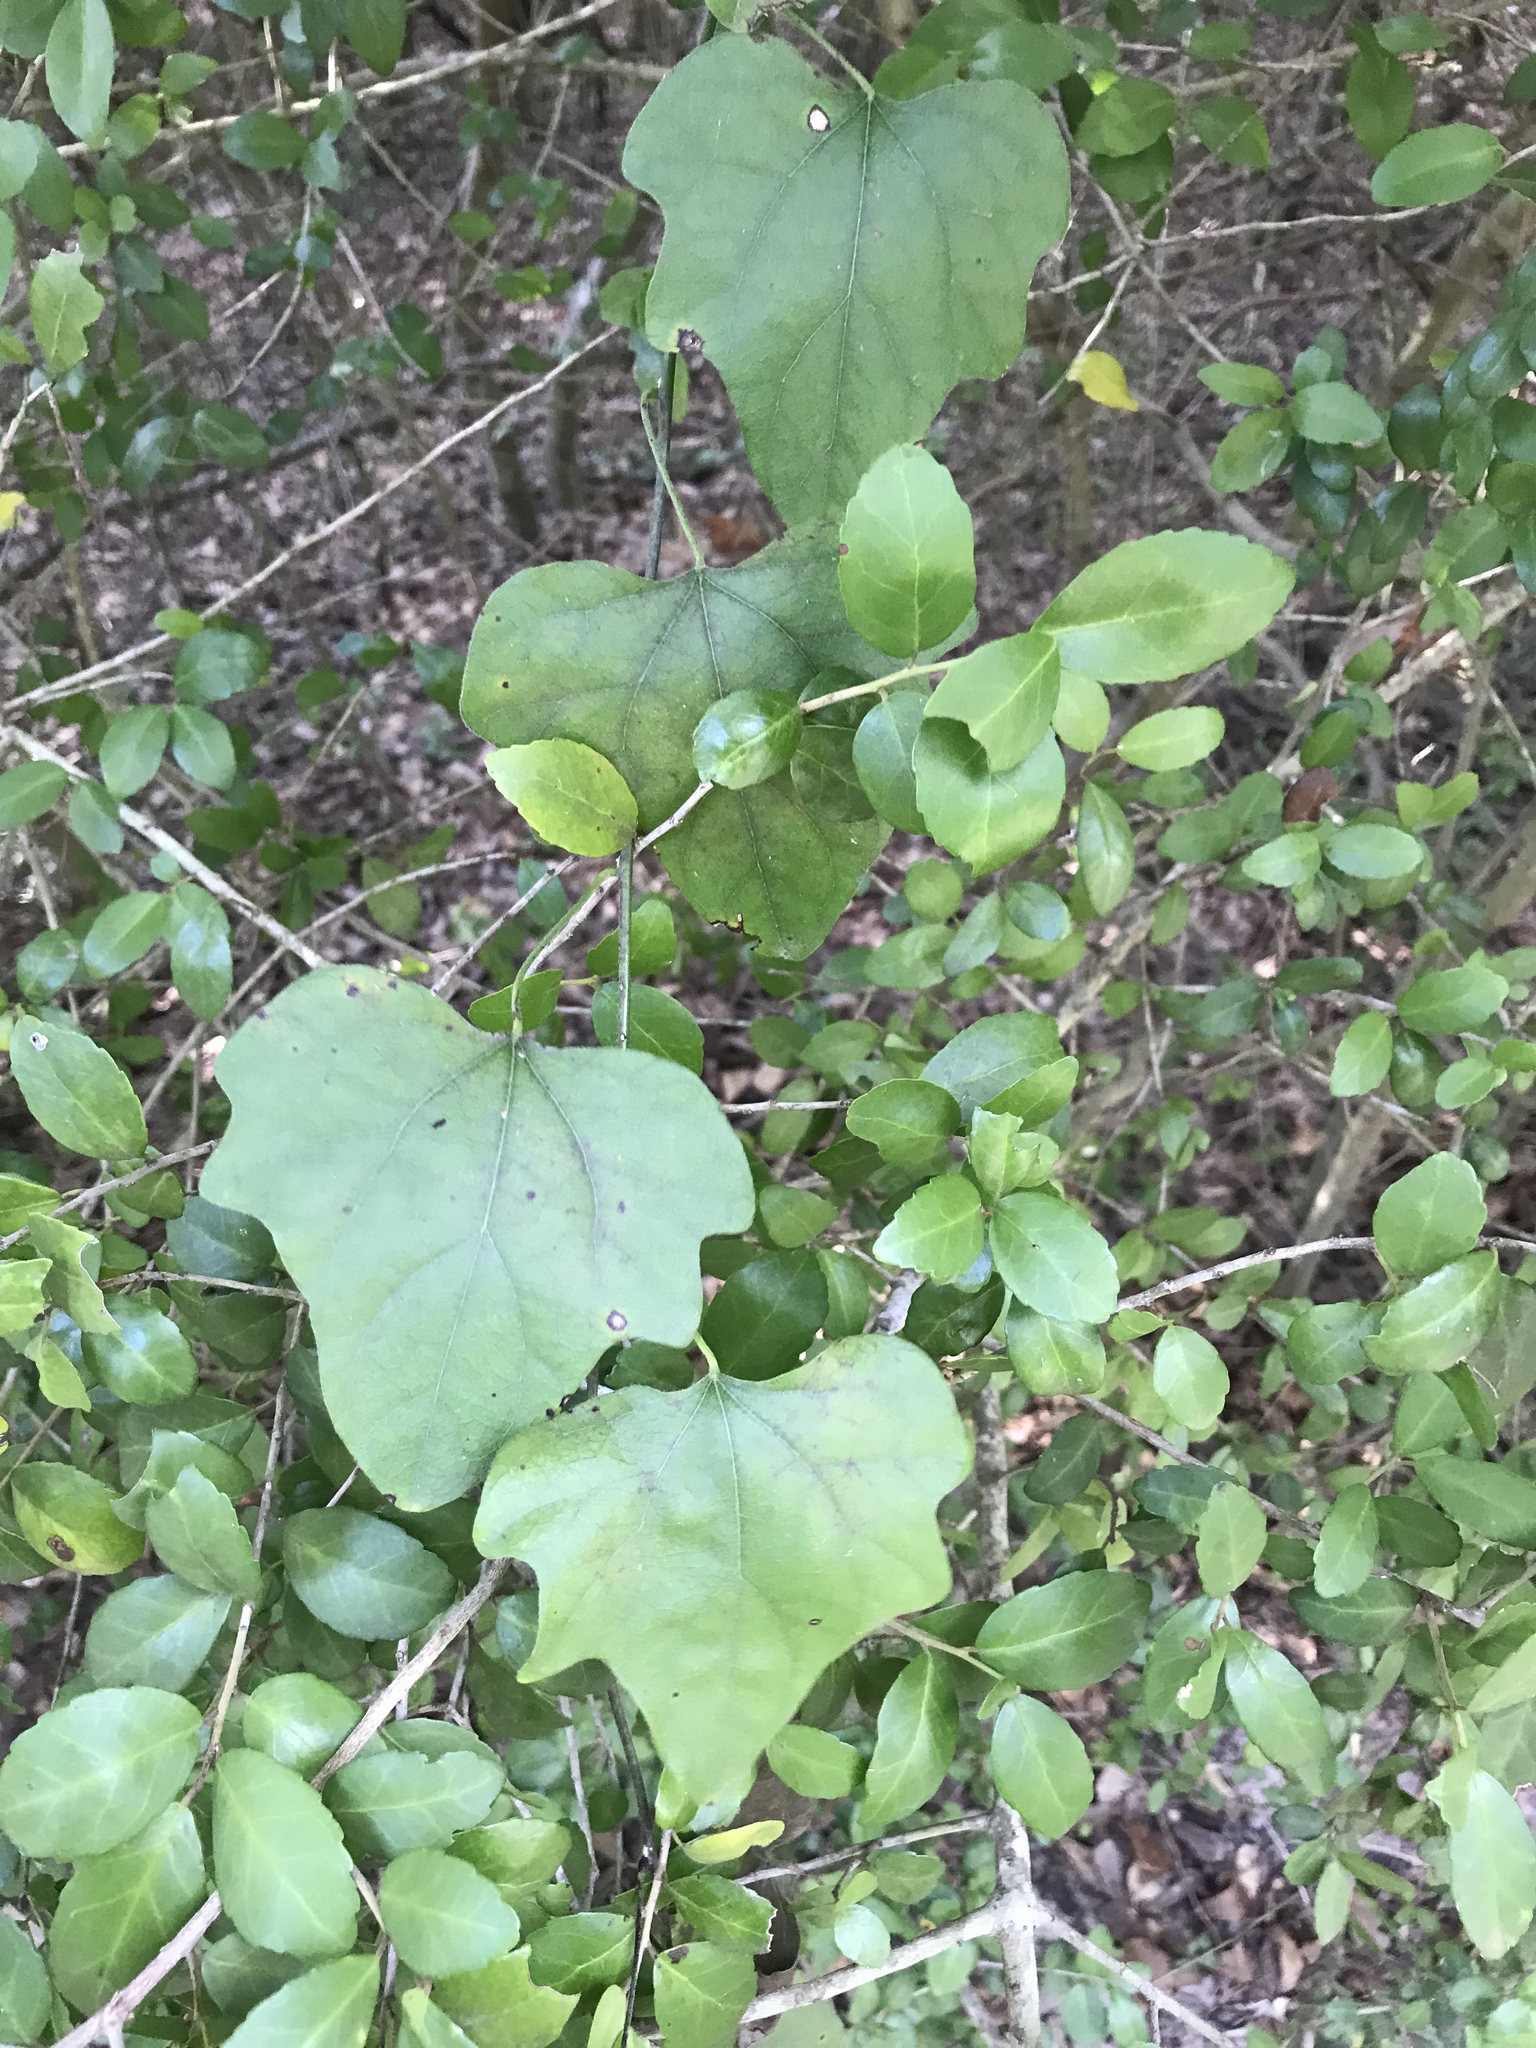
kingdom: Plantae
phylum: Tracheophyta
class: Magnoliopsida
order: Ranunculales
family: Menispermaceae
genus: Cocculus
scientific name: Cocculus carolinus
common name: Carolina moonseed
